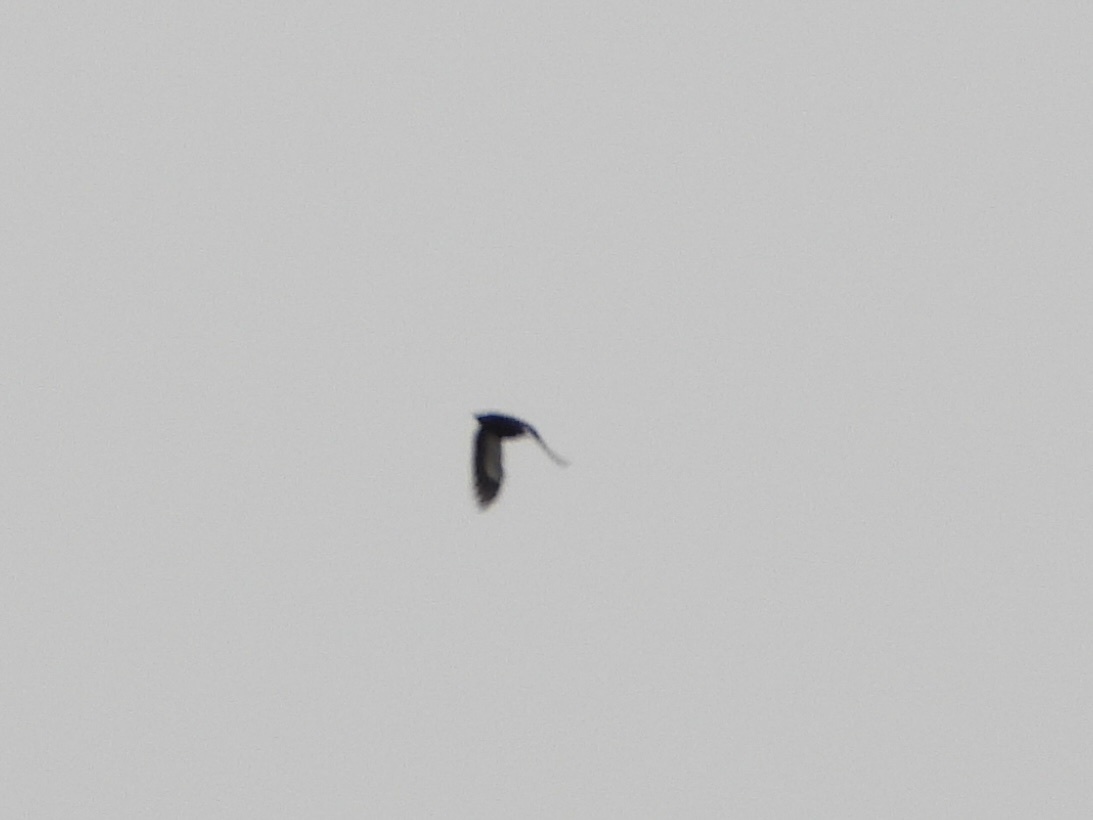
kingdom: Animalia
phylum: Chordata
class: Aves
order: Piciformes
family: Picidae
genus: Dryocopus
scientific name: Dryocopus pileatus
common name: Pileated woodpecker
